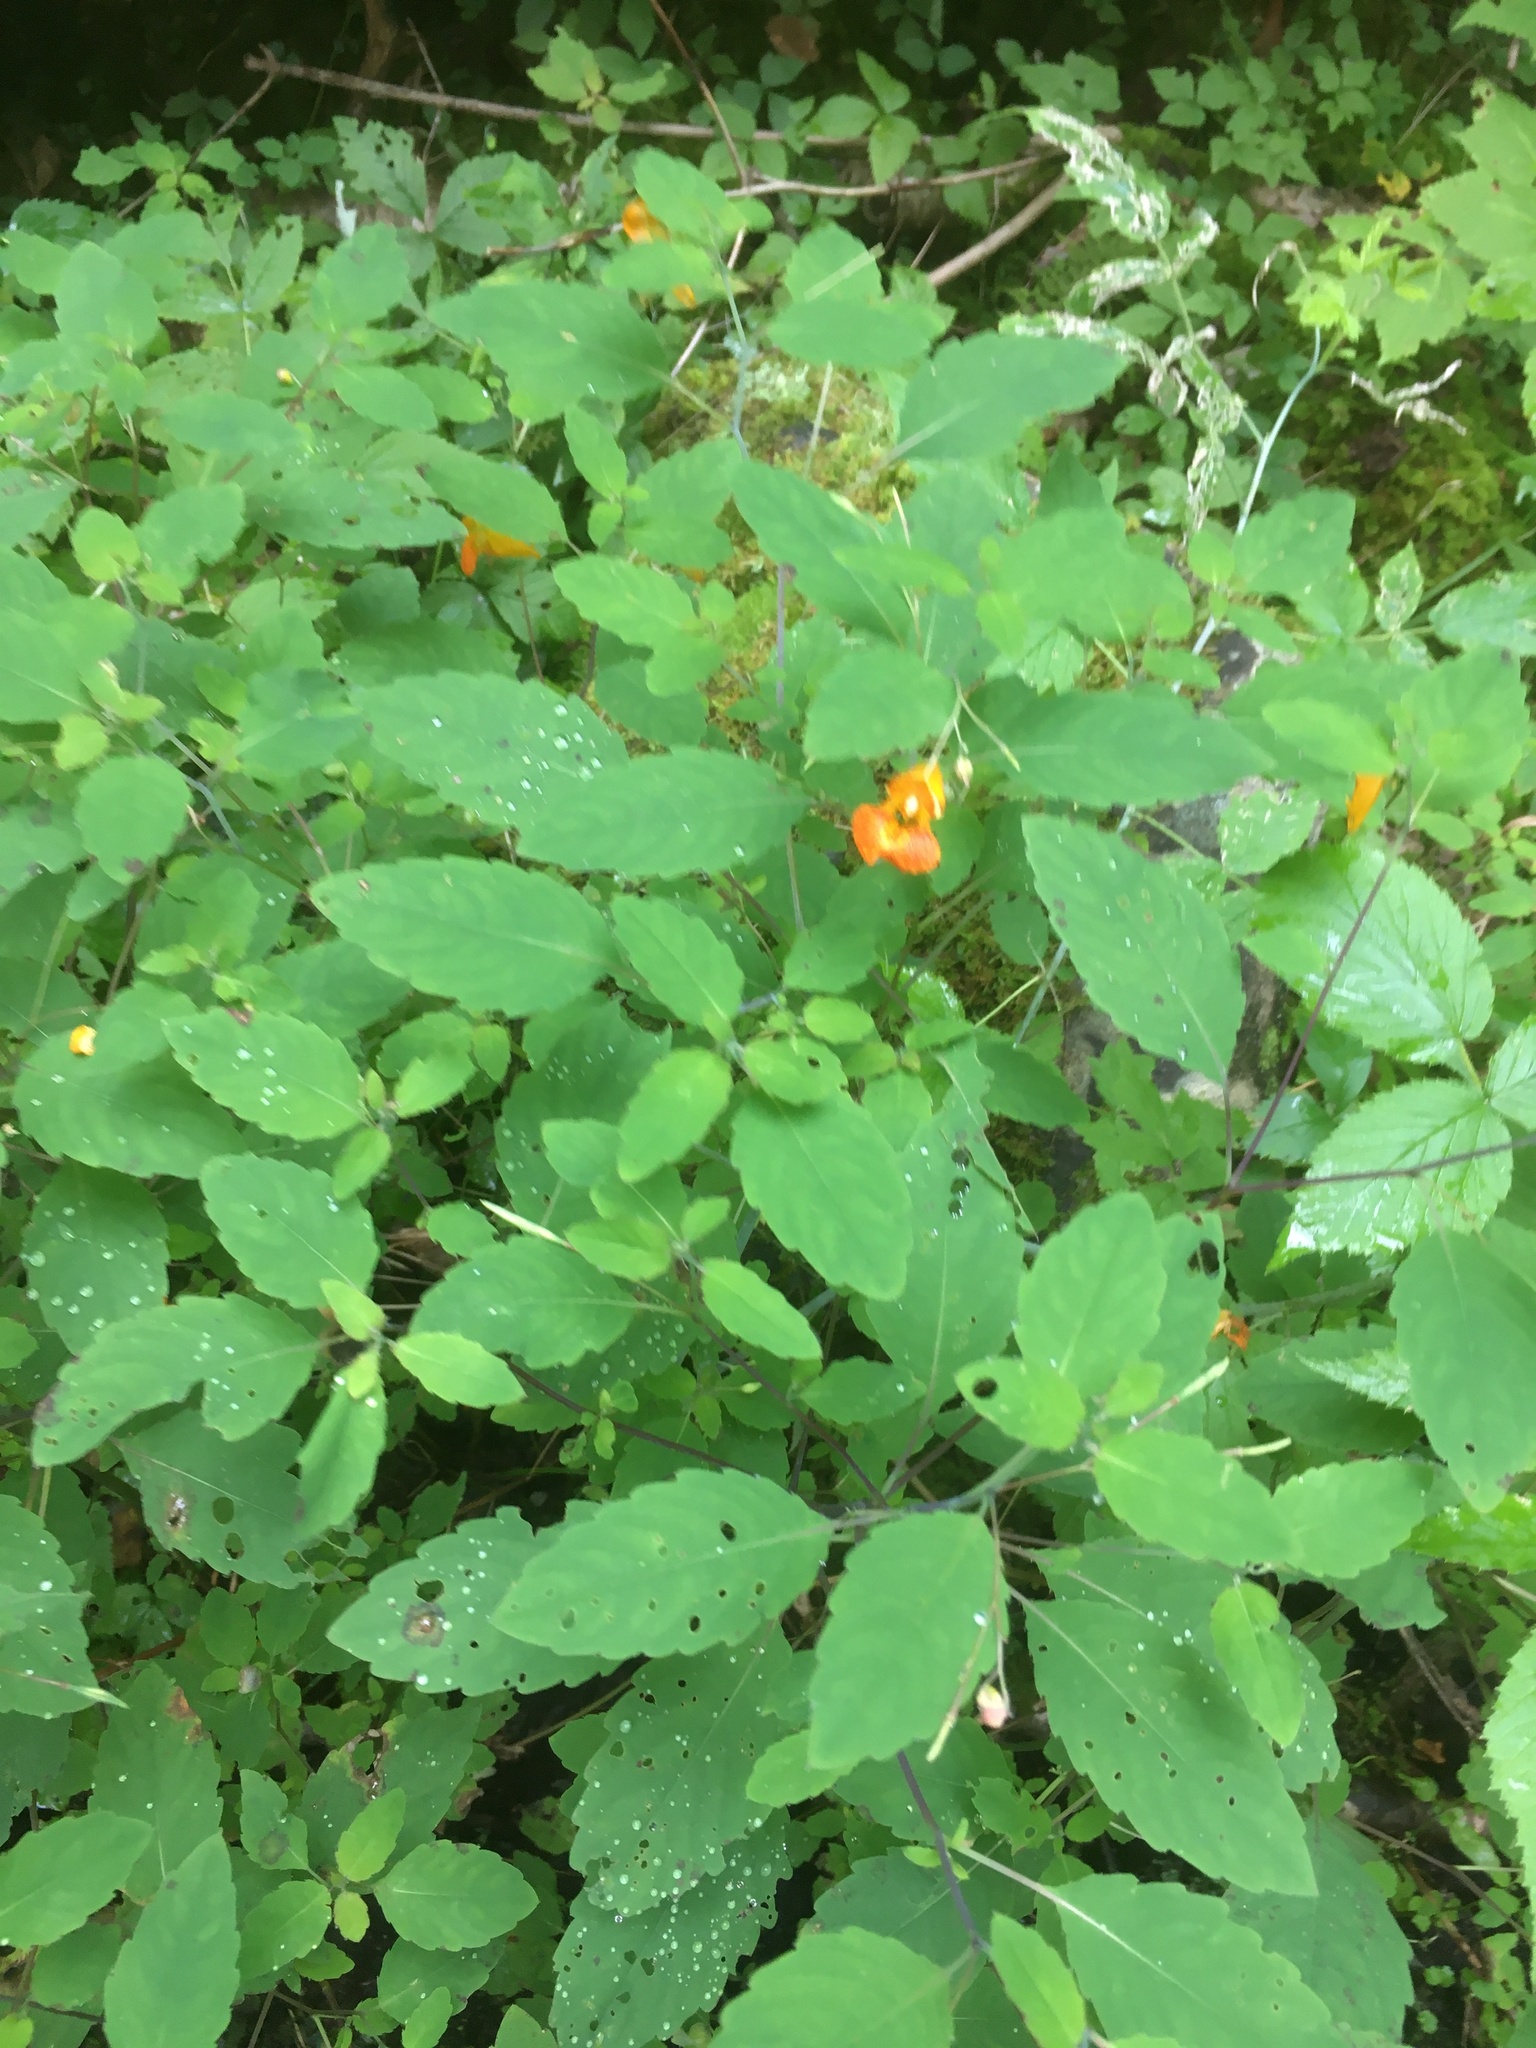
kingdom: Plantae
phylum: Tracheophyta
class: Magnoliopsida
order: Ericales
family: Balsaminaceae
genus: Impatiens
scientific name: Impatiens capensis
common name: Orange balsam
